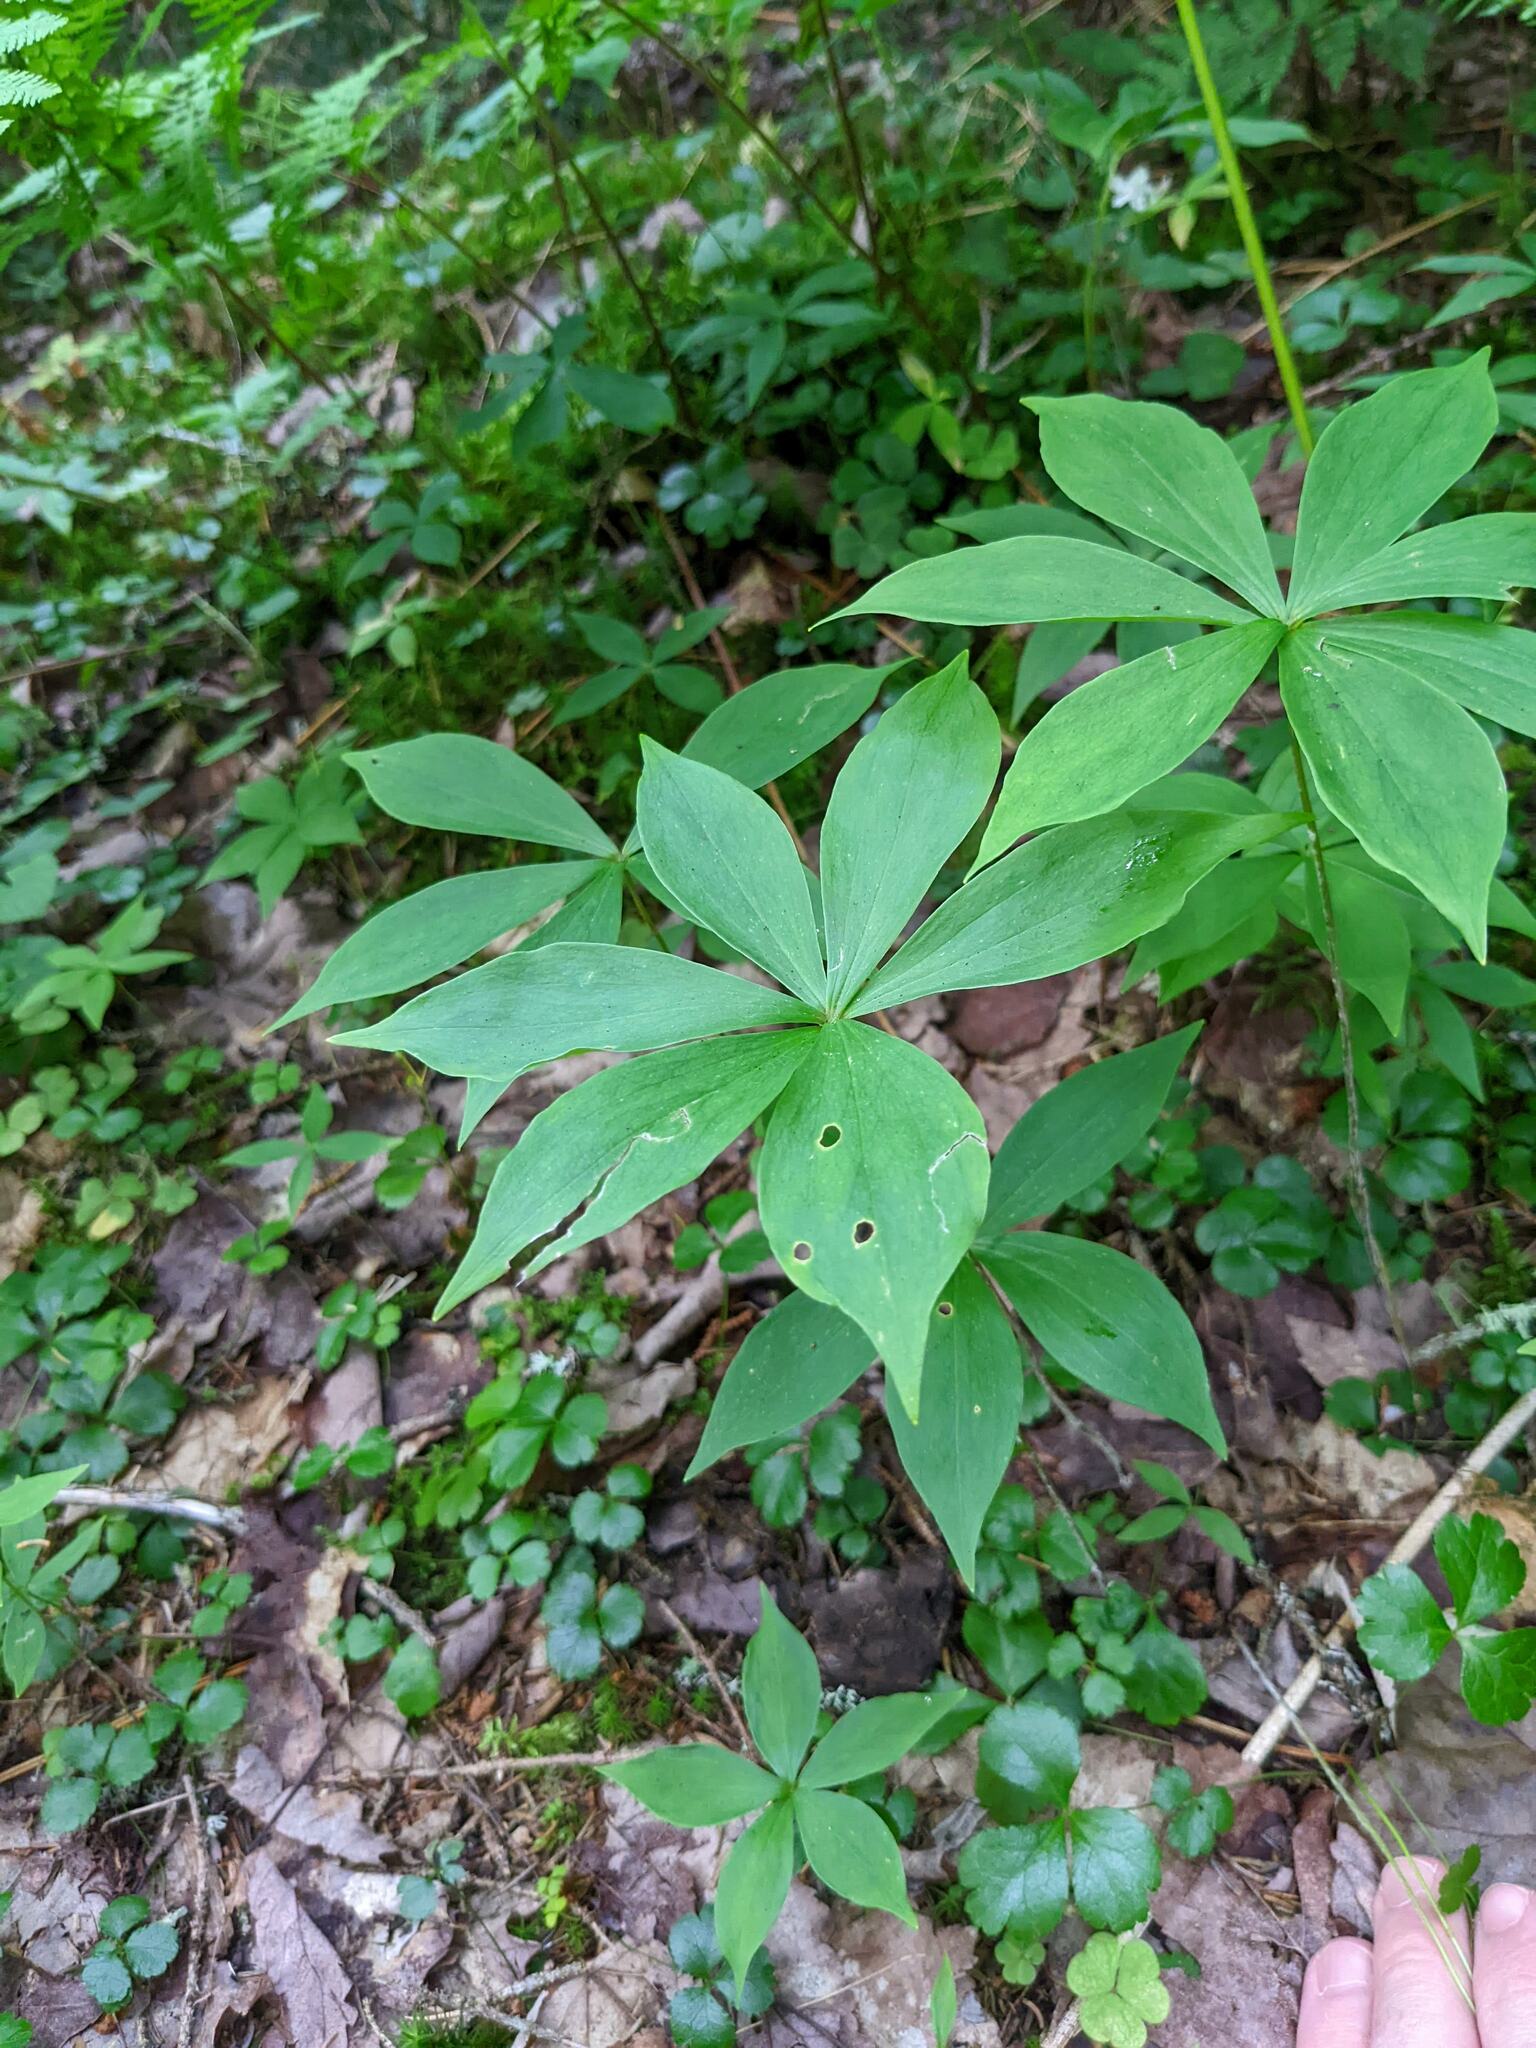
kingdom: Plantae
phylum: Tracheophyta
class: Liliopsida
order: Liliales
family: Liliaceae
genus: Medeola
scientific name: Medeola virginiana
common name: Indian cucumber-root
